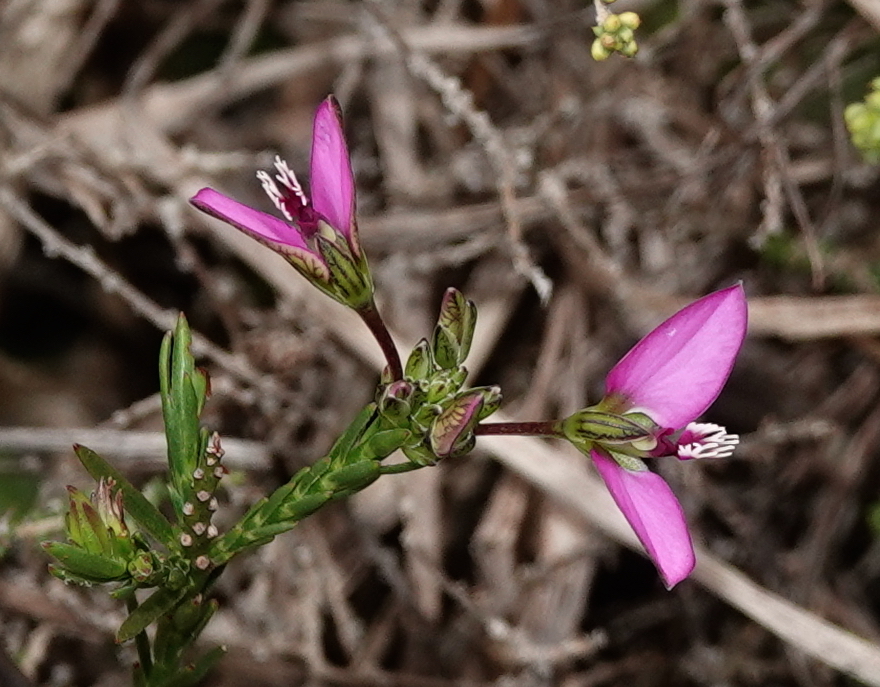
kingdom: Plantae
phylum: Tracheophyta
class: Magnoliopsida
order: Fabales
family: Polygalaceae
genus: Polygala
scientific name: Polygala recognita
